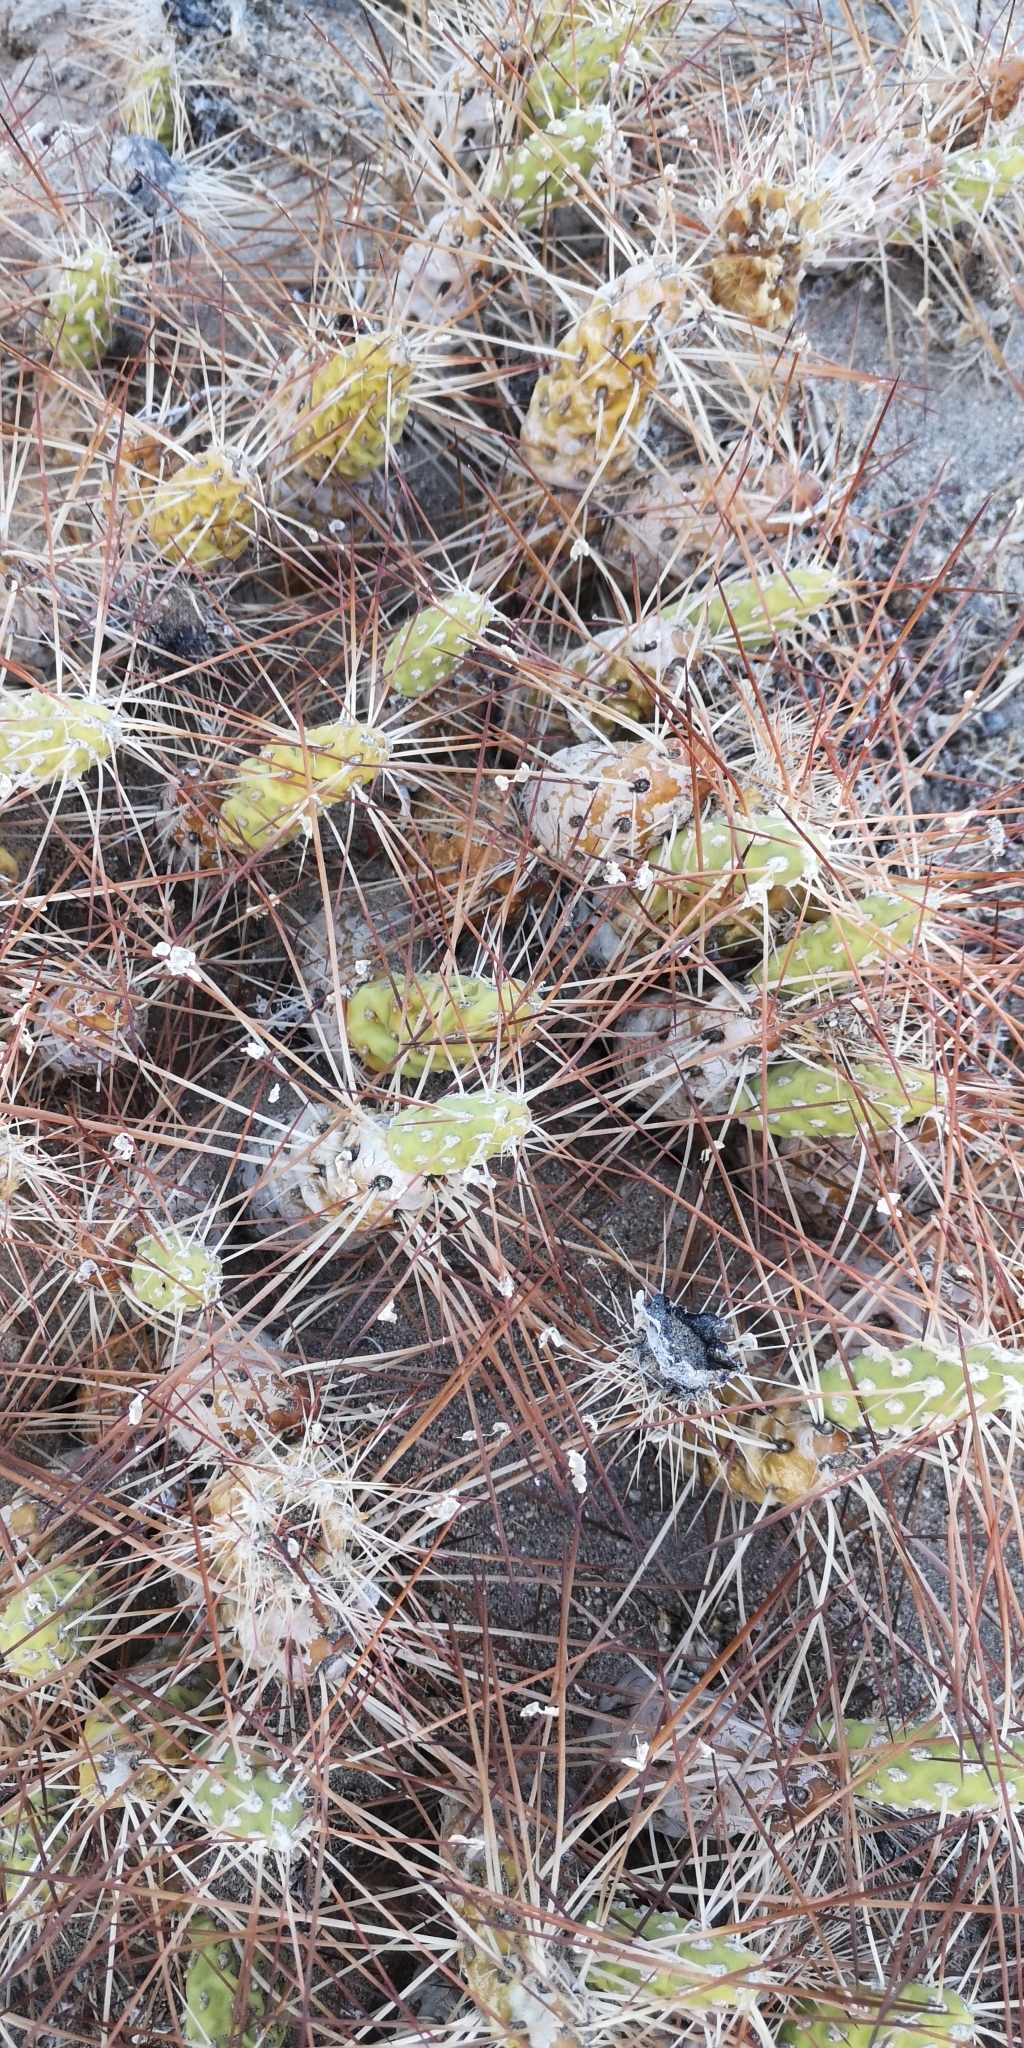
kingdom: Plantae
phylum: Tracheophyta
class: Magnoliopsida
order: Caryophyllales
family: Cactaceae
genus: Maihueniopsis
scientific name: Maihueniopsis camachoi
